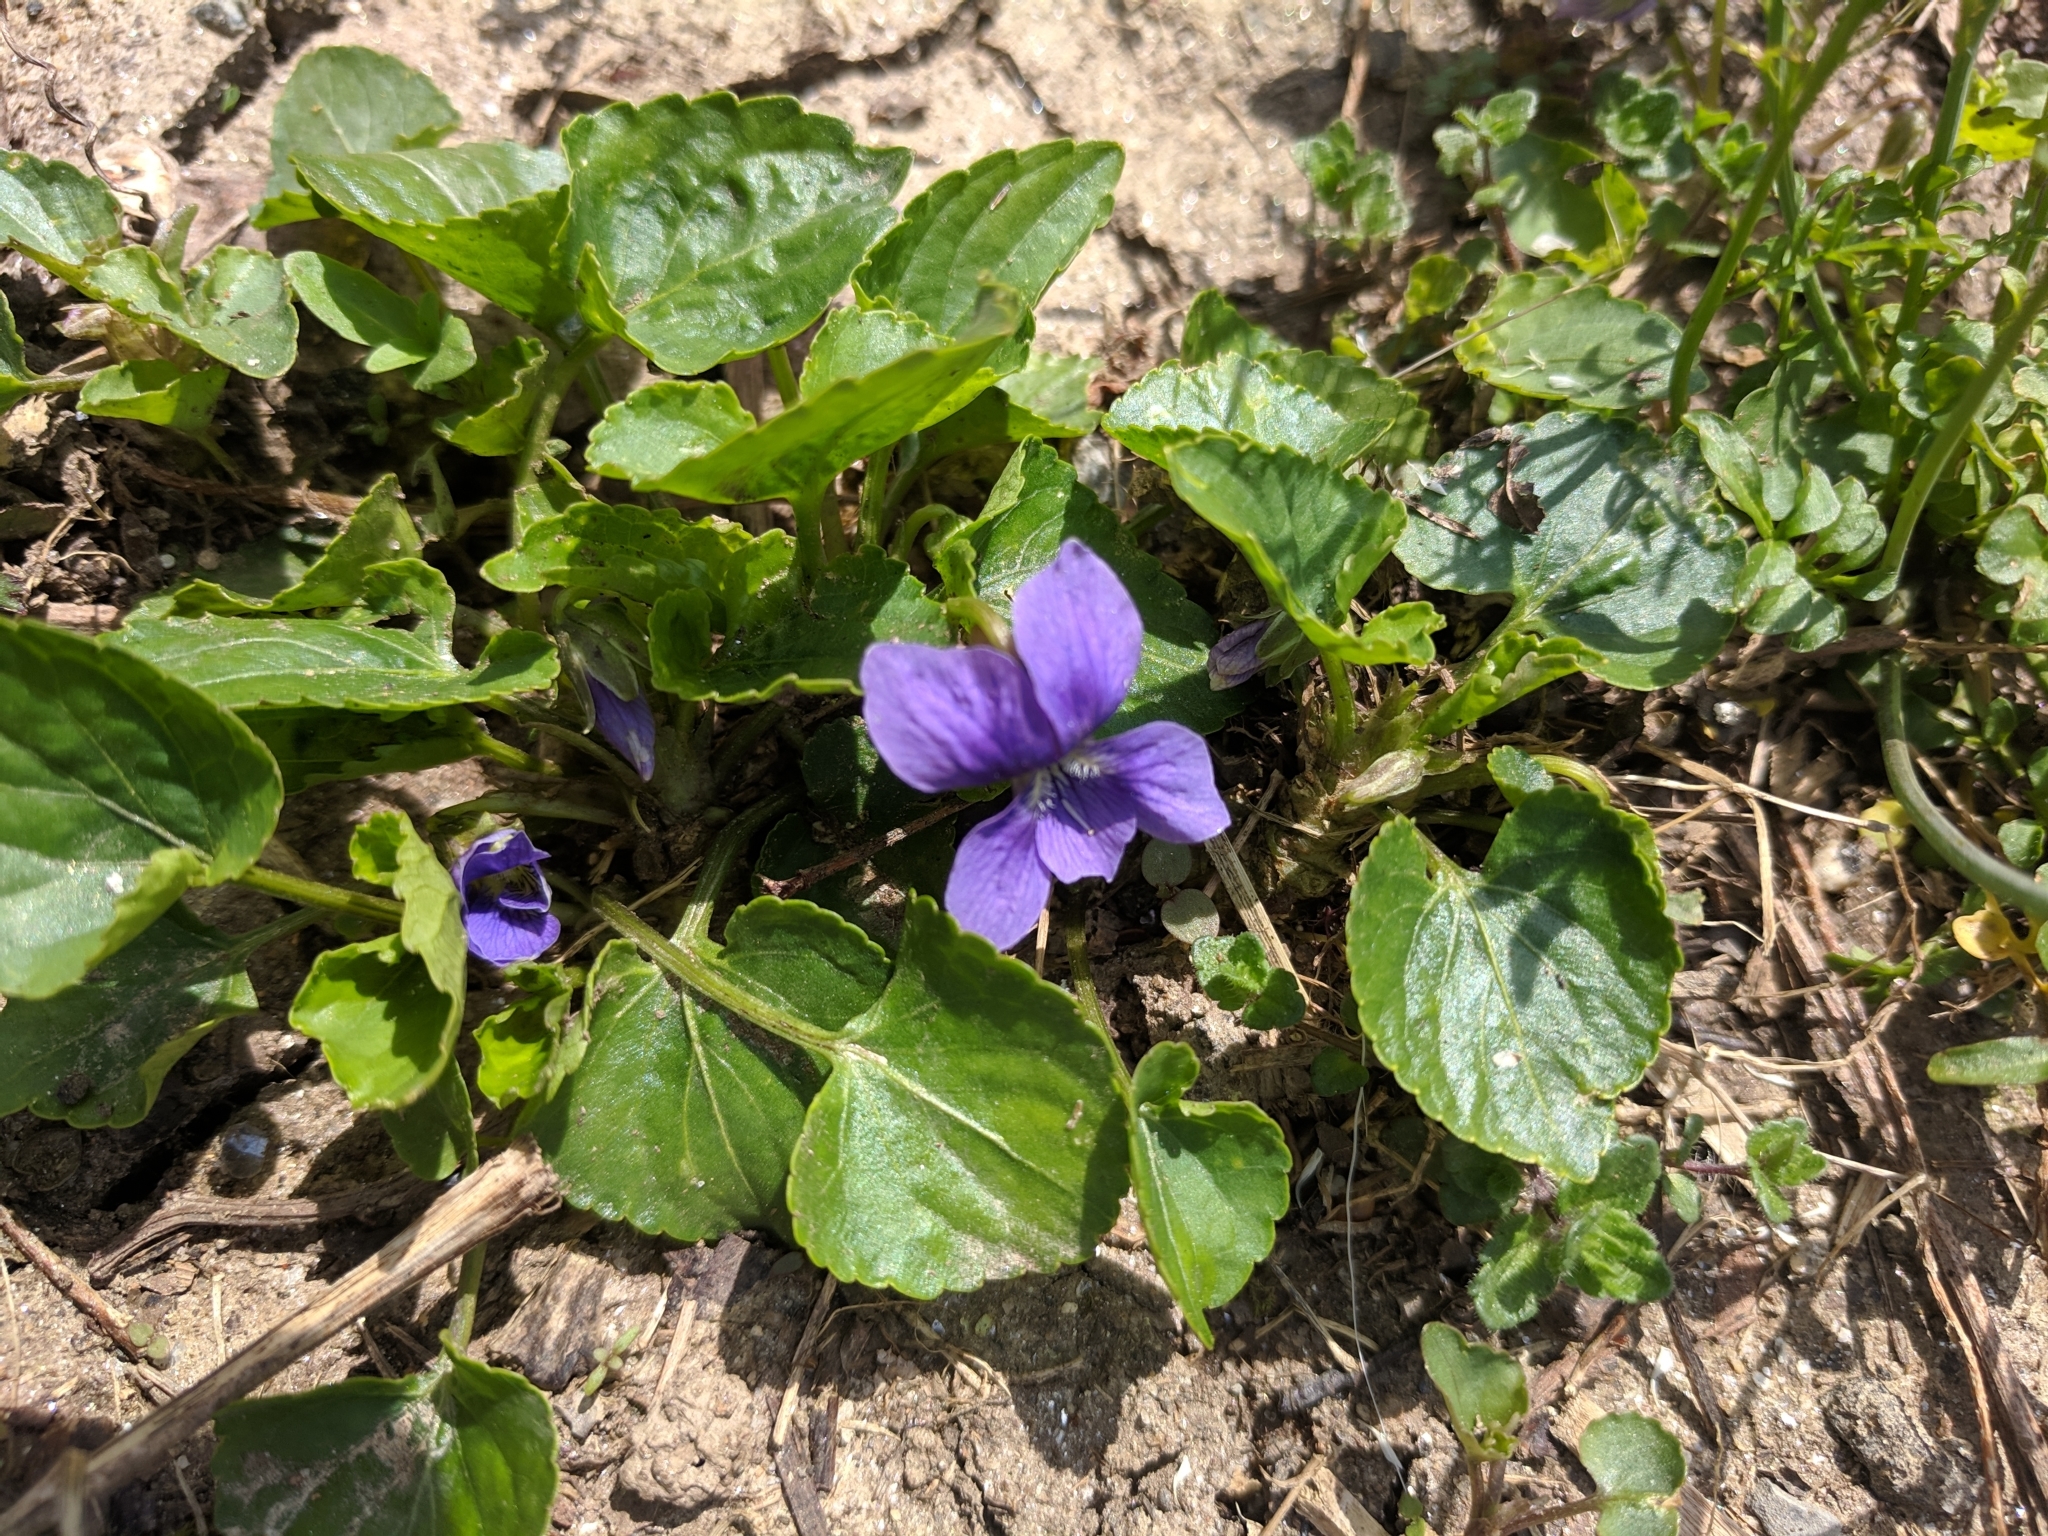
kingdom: Plantae
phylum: Tracheophyta
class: Magnoliopsida
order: Malpighiales
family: Violaceae
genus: Viola
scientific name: Viola sororia
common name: Dooryard violet
